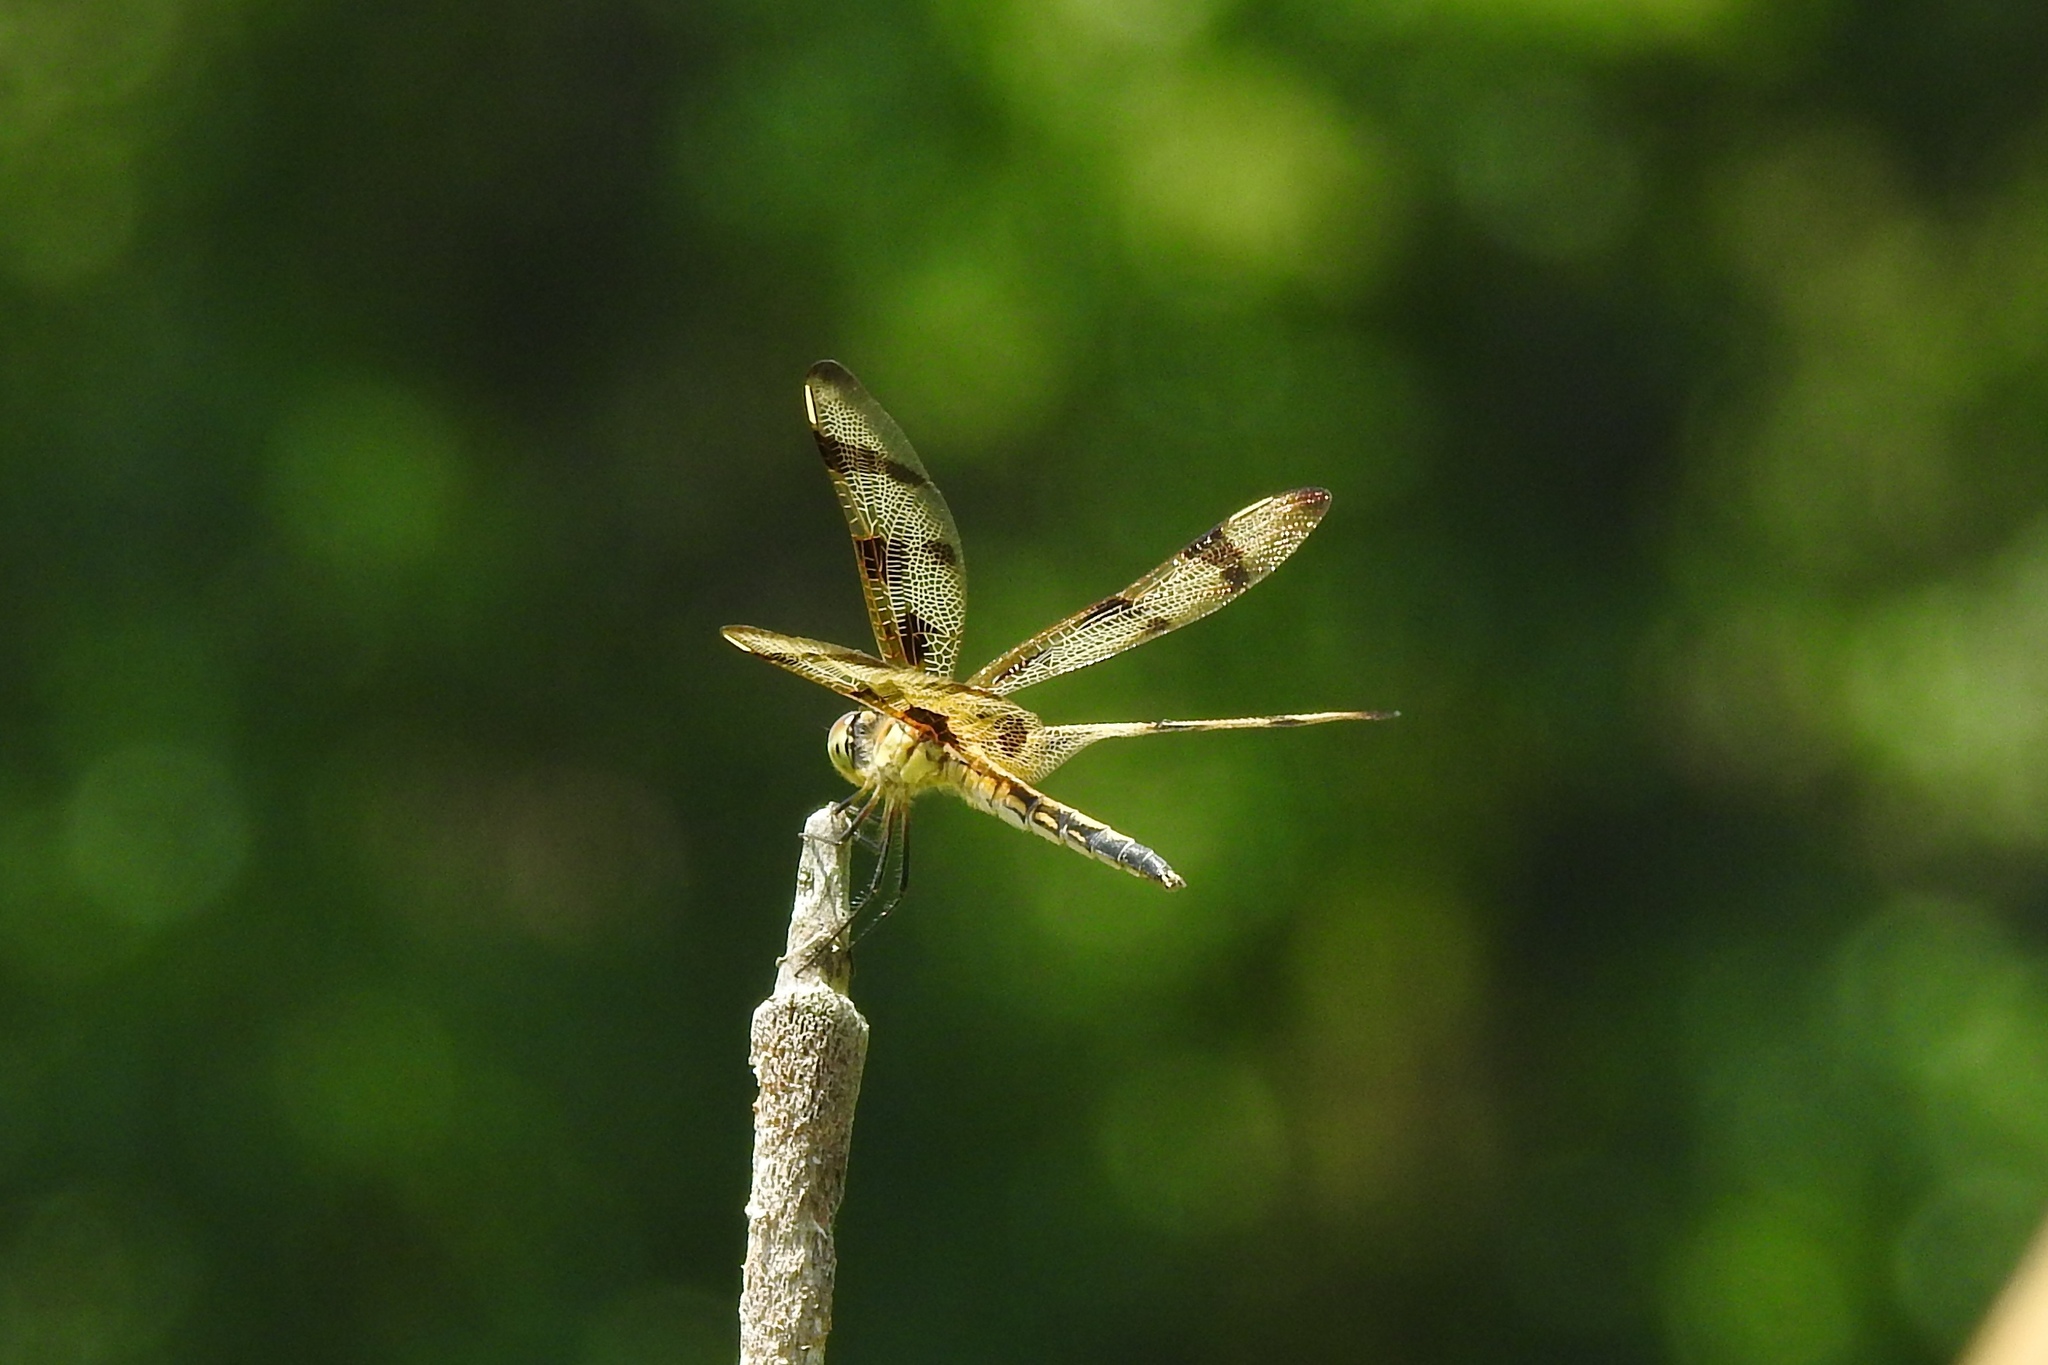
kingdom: Animalia
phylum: Arthropoda
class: Insecta
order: Odonata
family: Libellulidae
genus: Celithemis
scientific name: Celithemis eponina
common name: Halloween pennant
